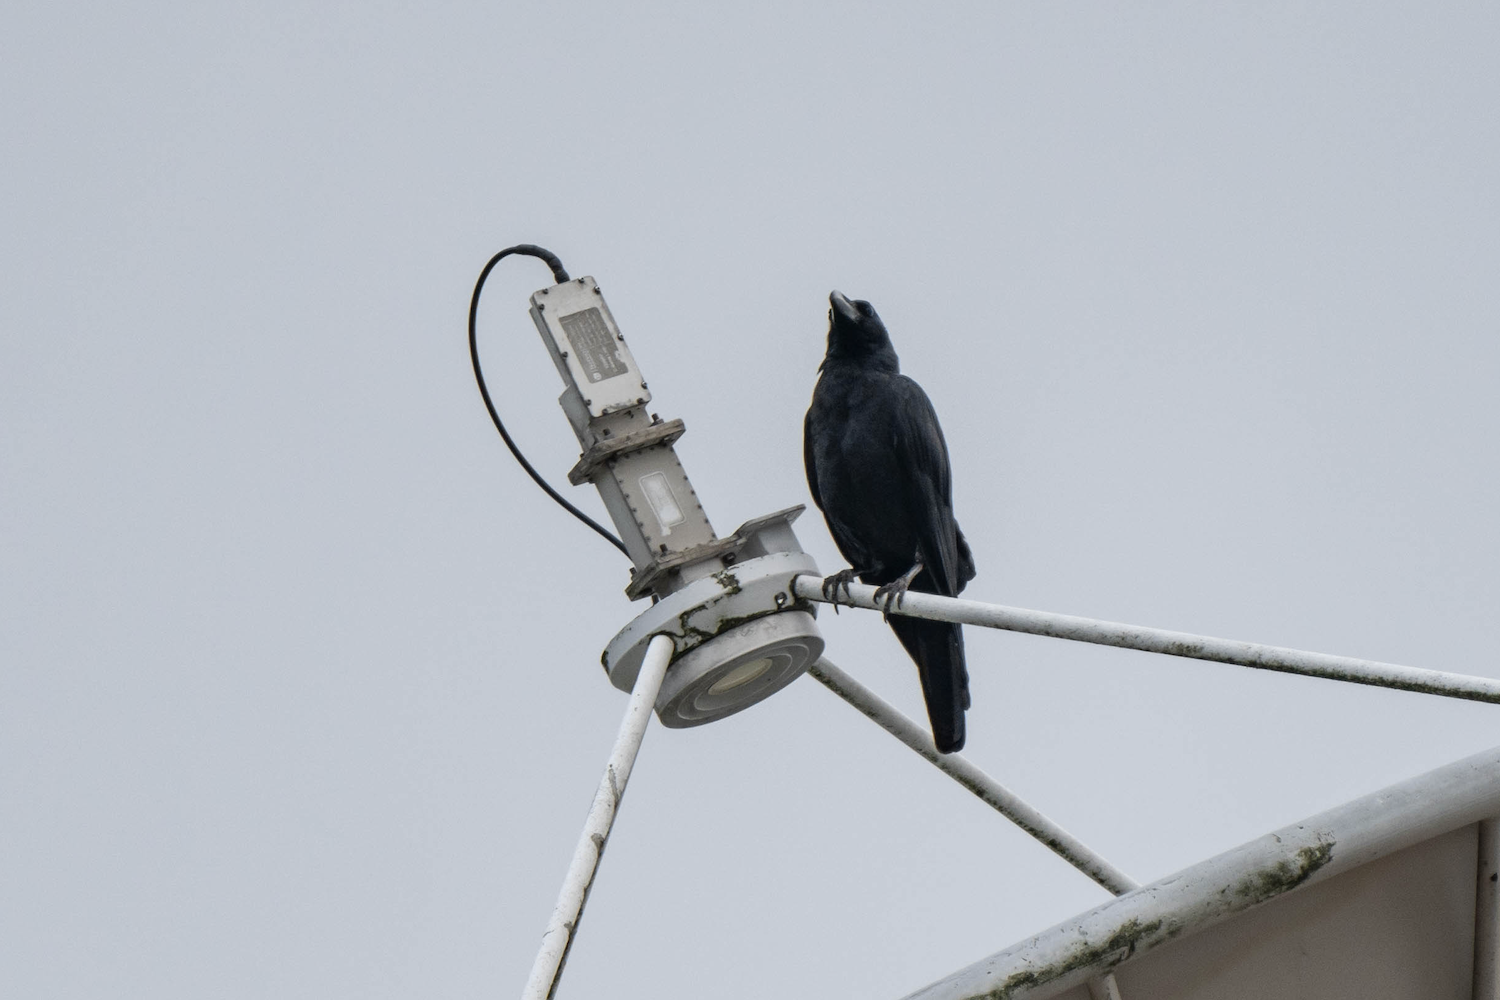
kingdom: Animalia
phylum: Chordata
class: Aves
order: Passeriformes
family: Corvidae
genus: Corvus
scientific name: Corvus macrorhynchos
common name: Large-billed crow
